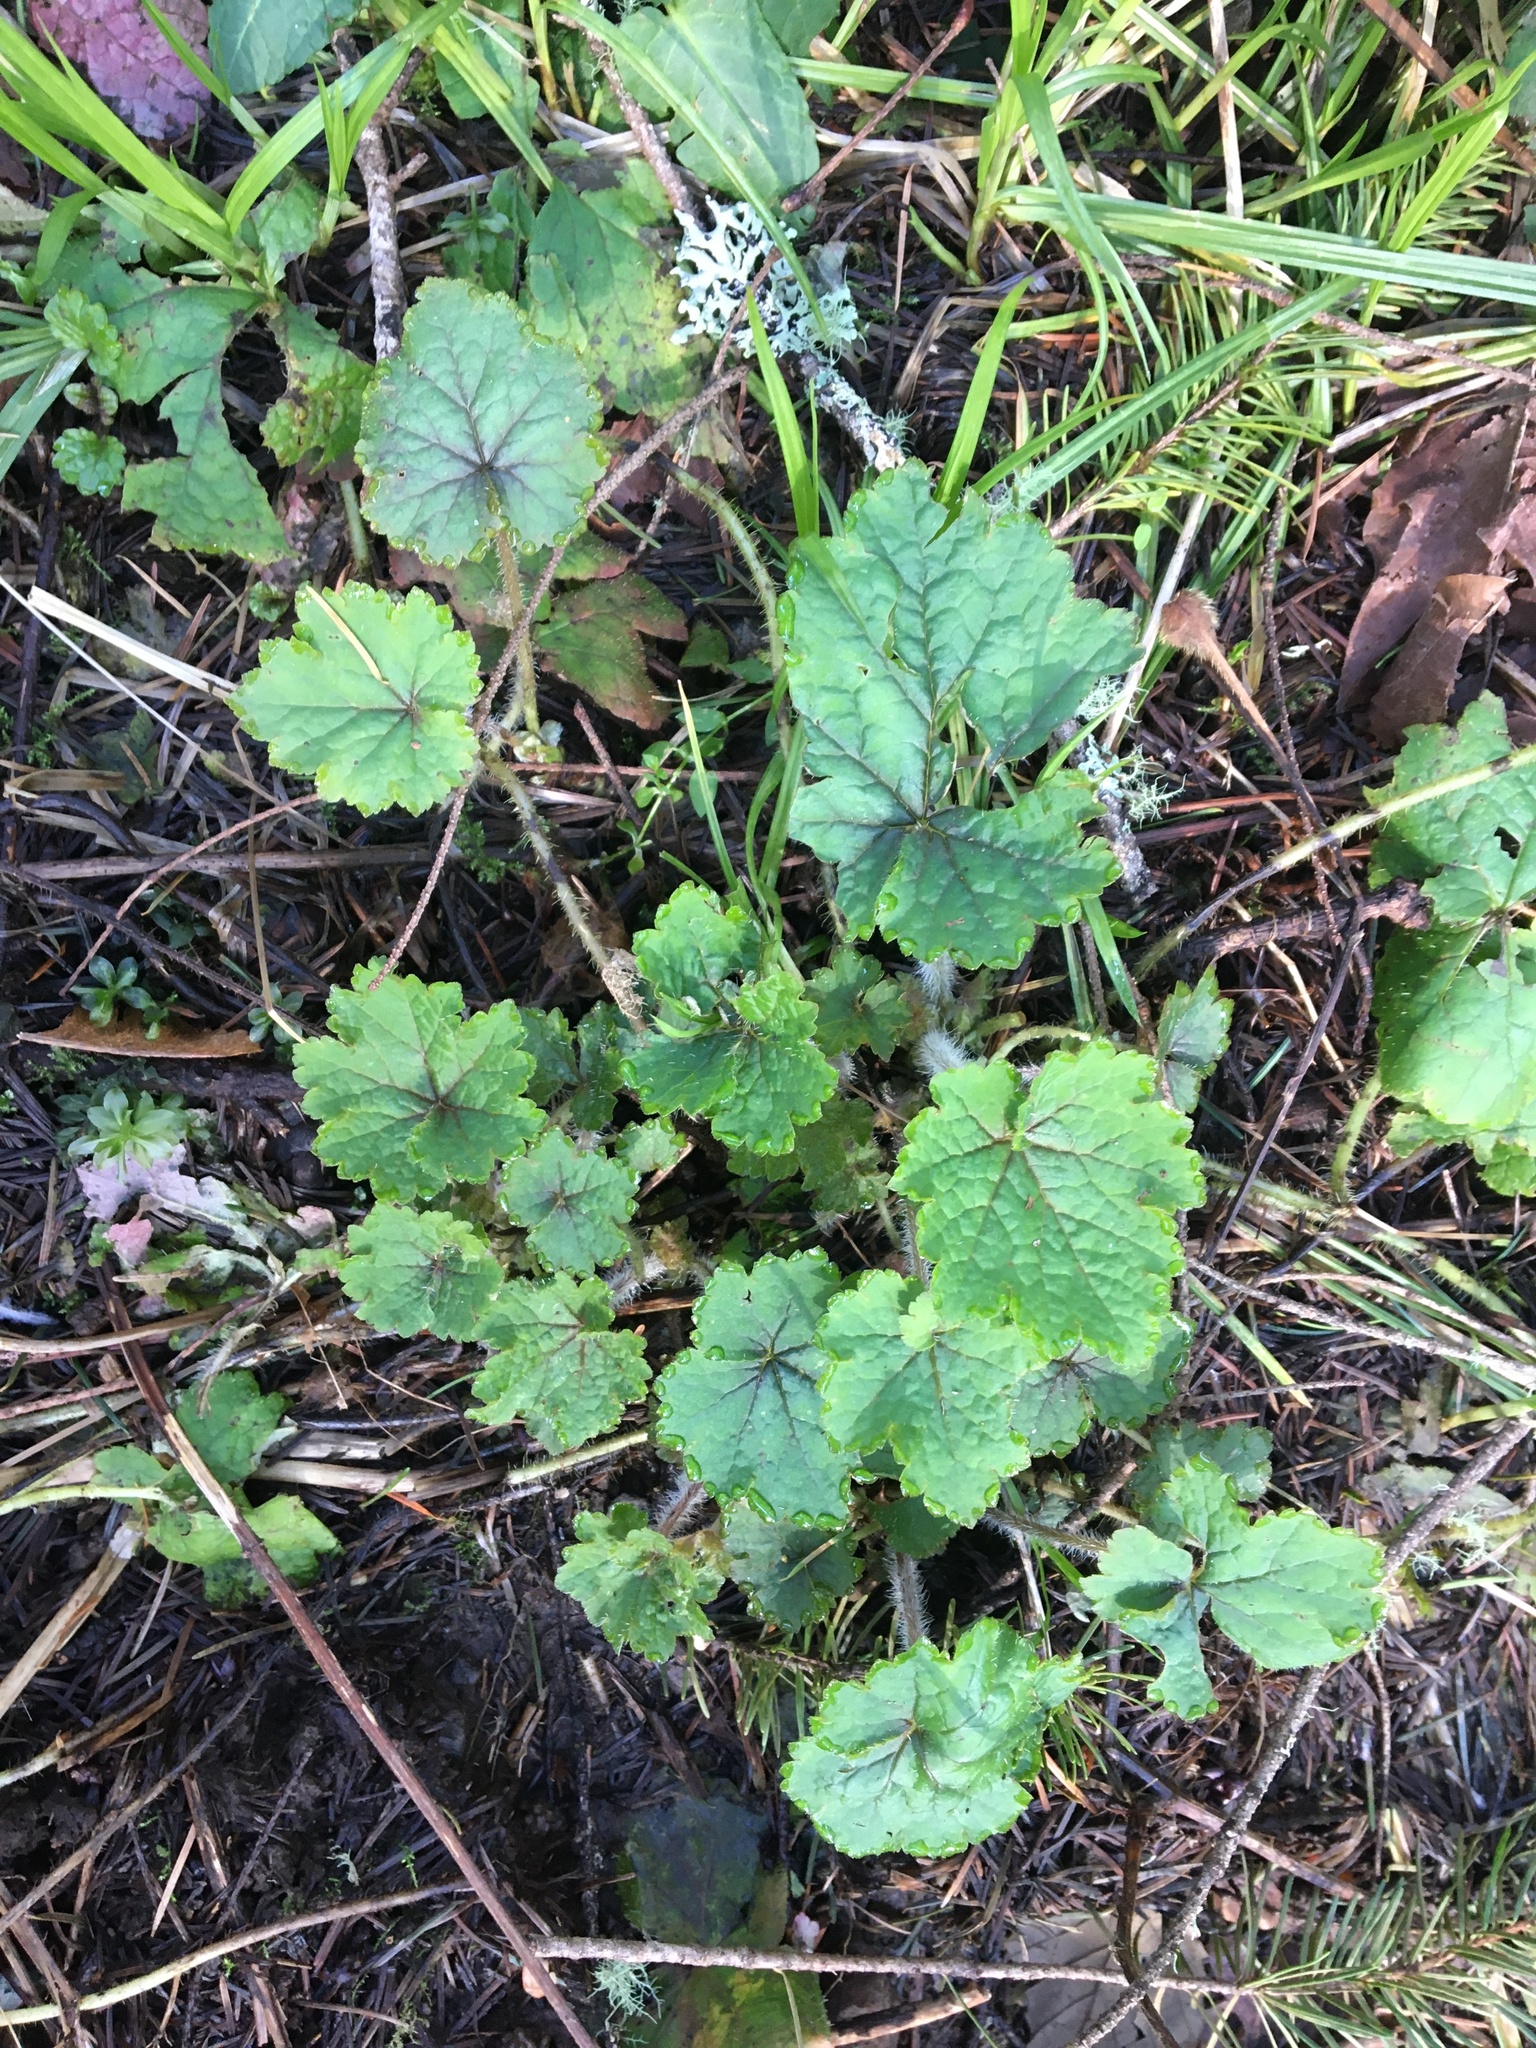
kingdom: Plantae
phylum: Tracheophyta
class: Magnoliopsida
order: Saxifragales
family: Saxifragaceae
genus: Tellima
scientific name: Tellima grandiflora
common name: Fringecups
